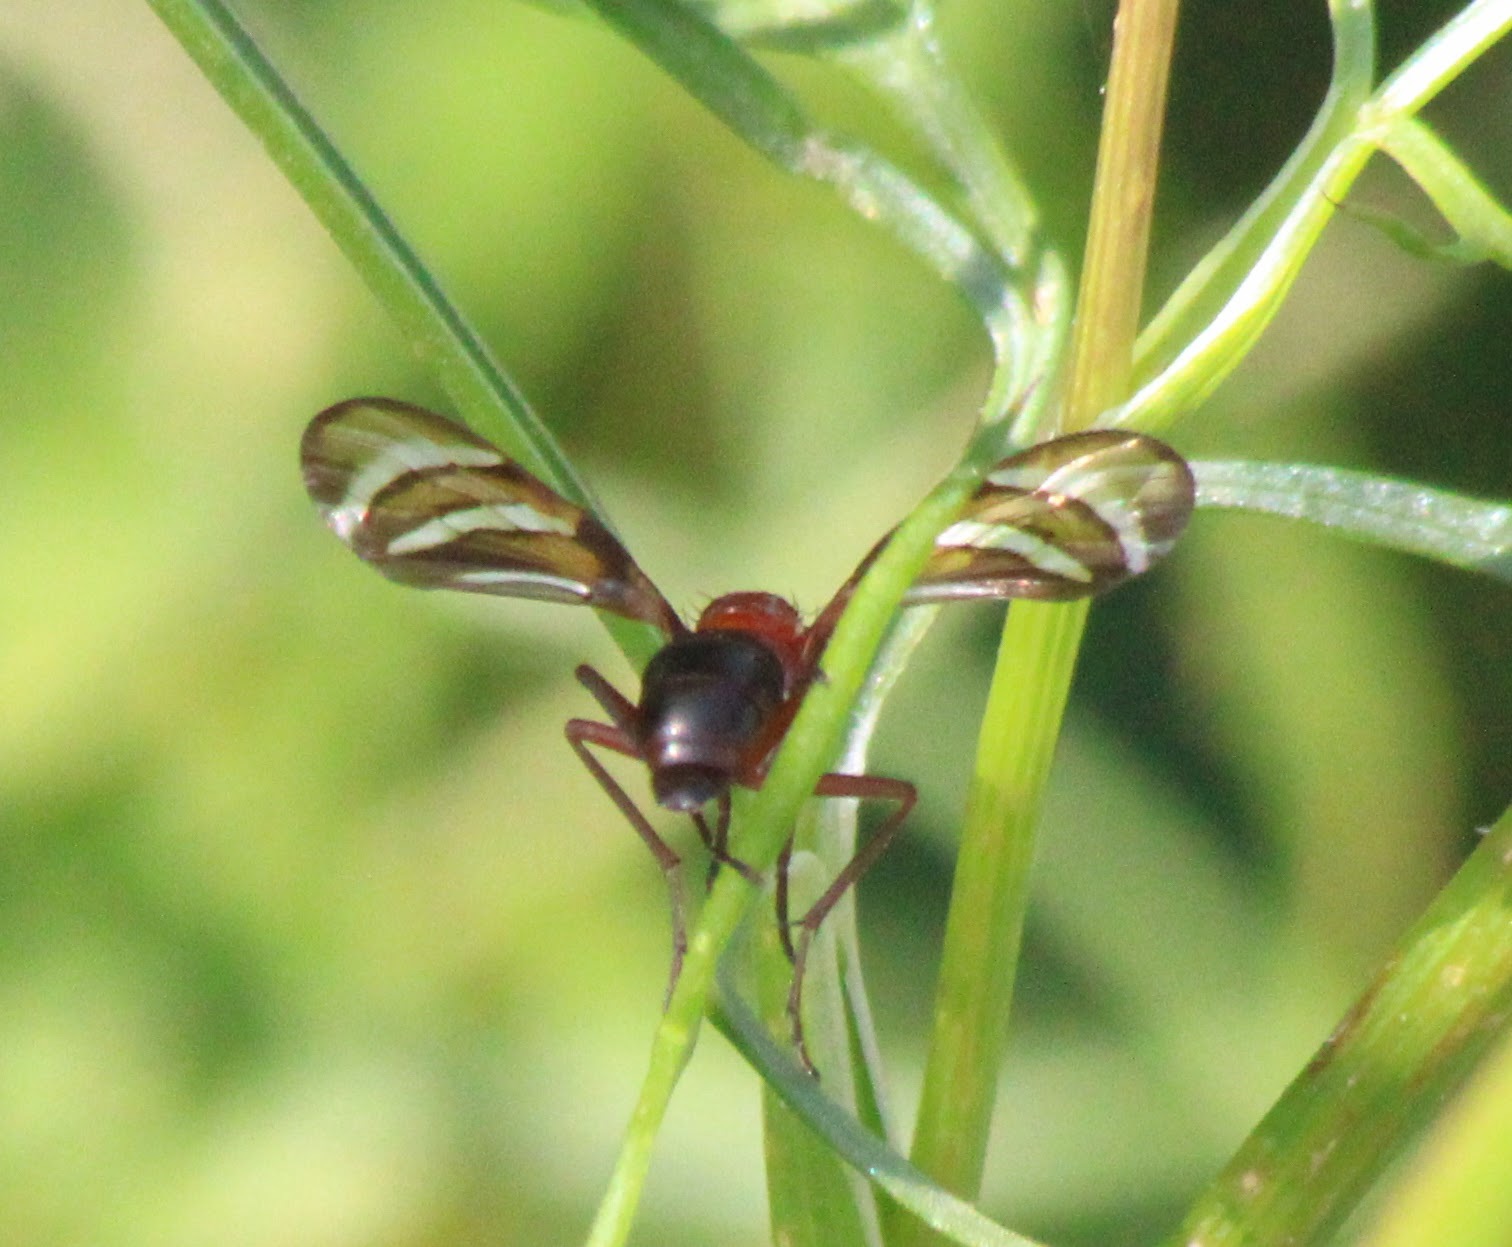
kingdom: Animalia
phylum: Arthropoda
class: Insecta
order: Diptera
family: Ulidiidae
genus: Tritoxa
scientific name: Tritoxa incurva
